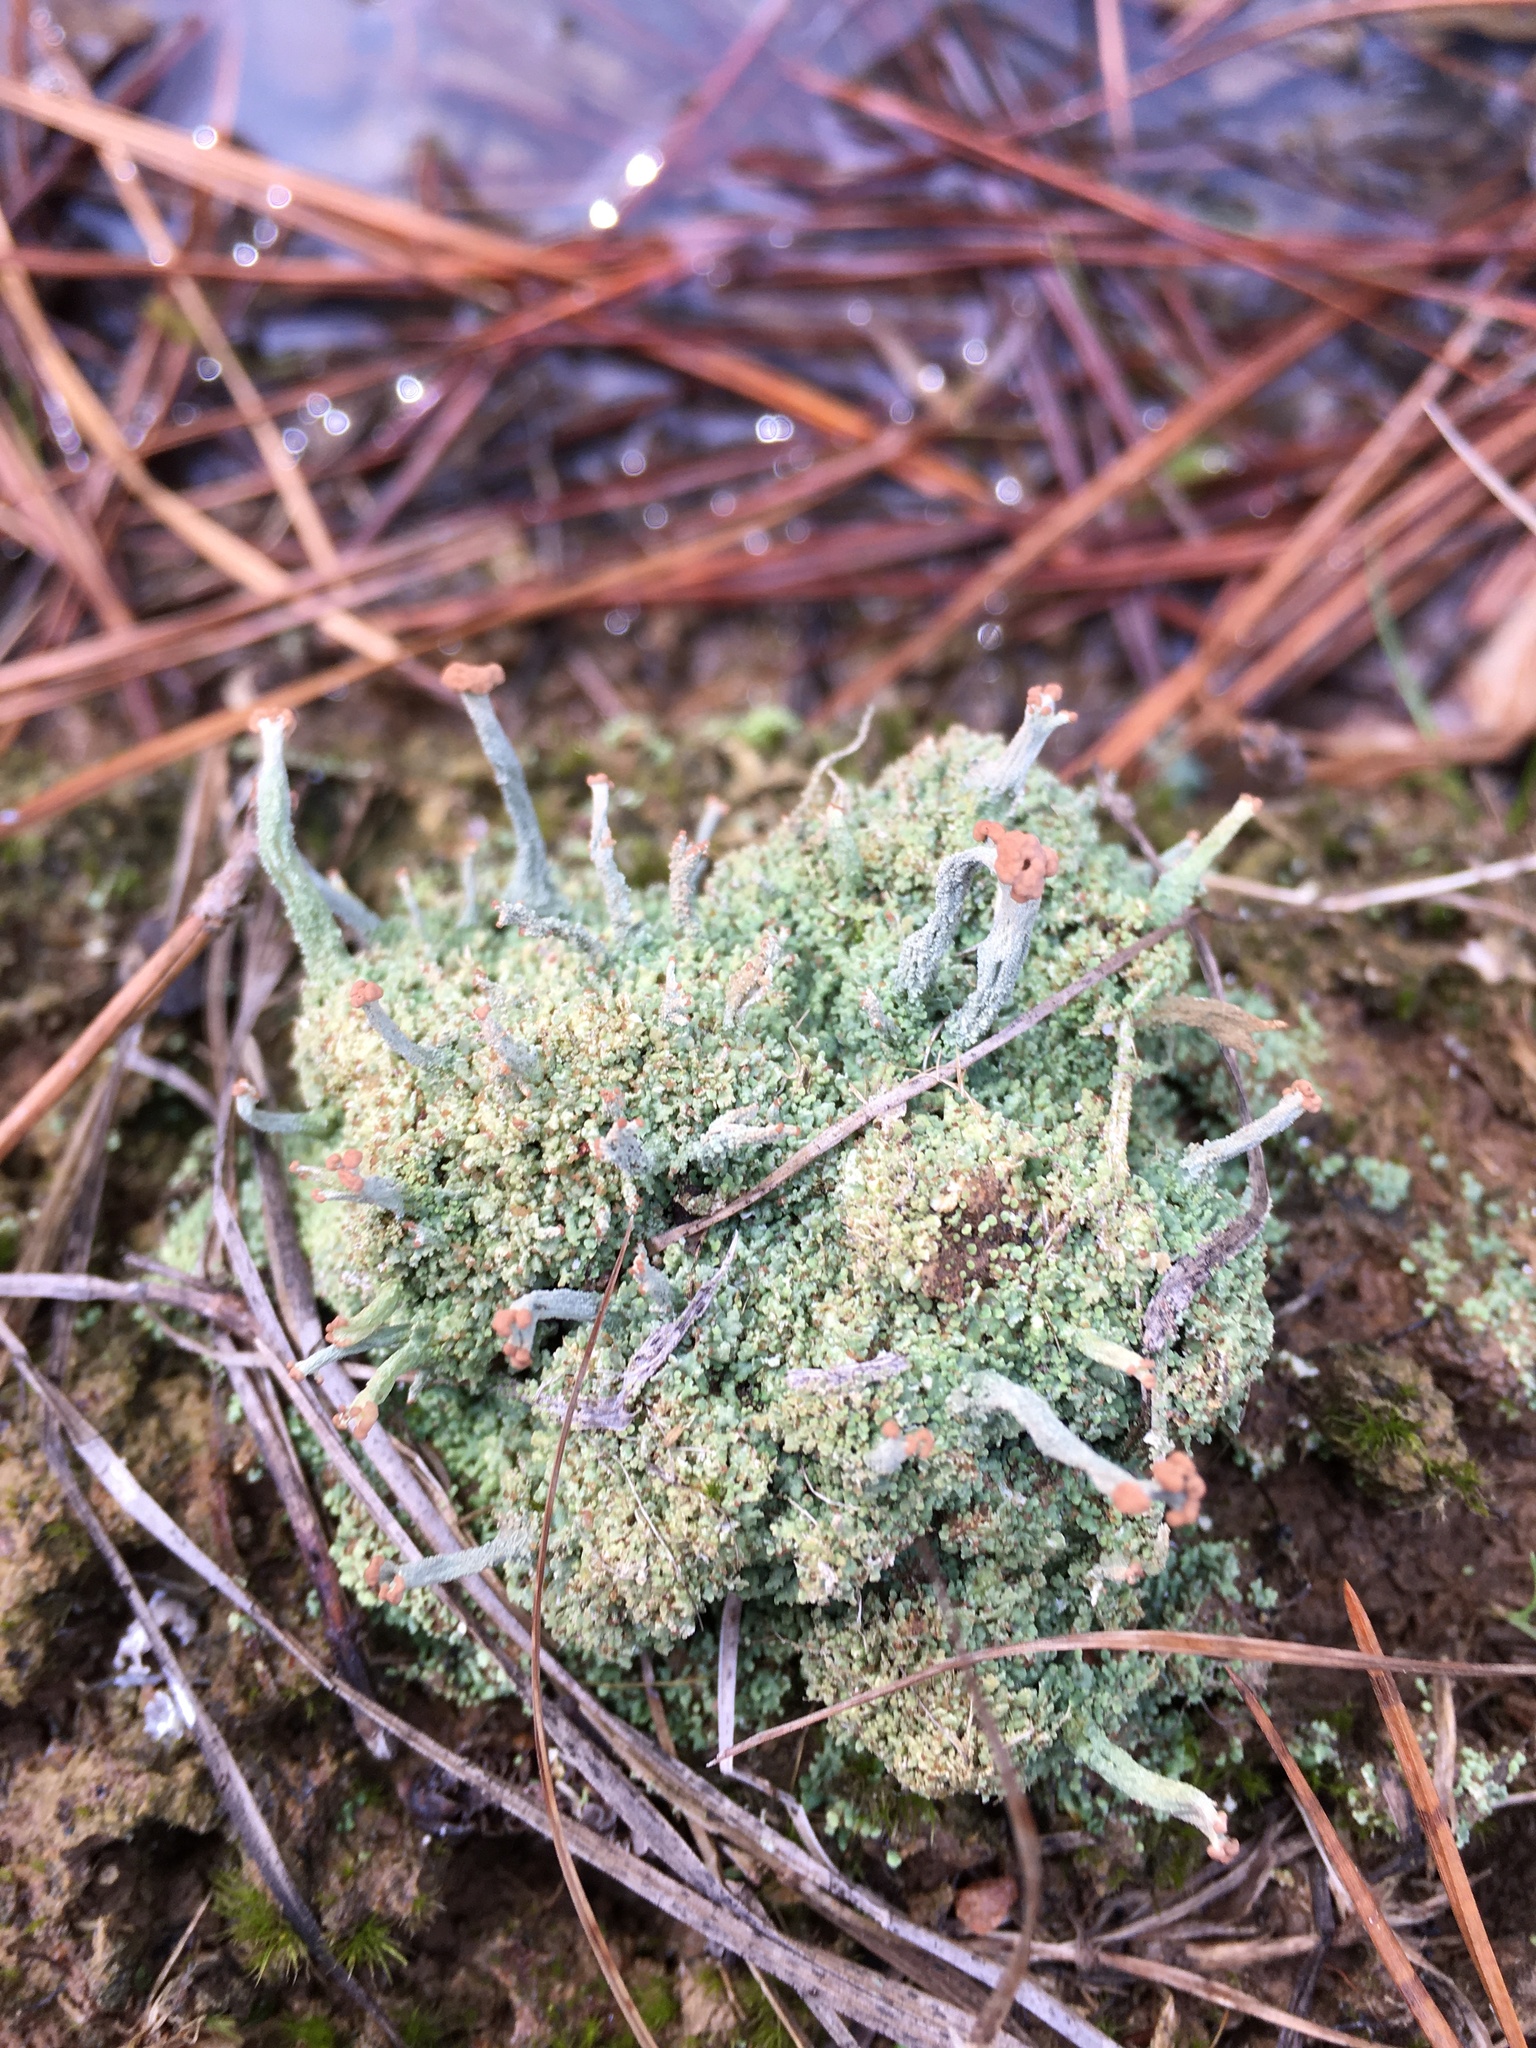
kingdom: Fungi
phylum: Ascomycota
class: Lecanoromycetes
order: Lecanorales
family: Cladoniaceae
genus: Cladonia
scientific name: Cladonia peziziformis
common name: Cup lichen
